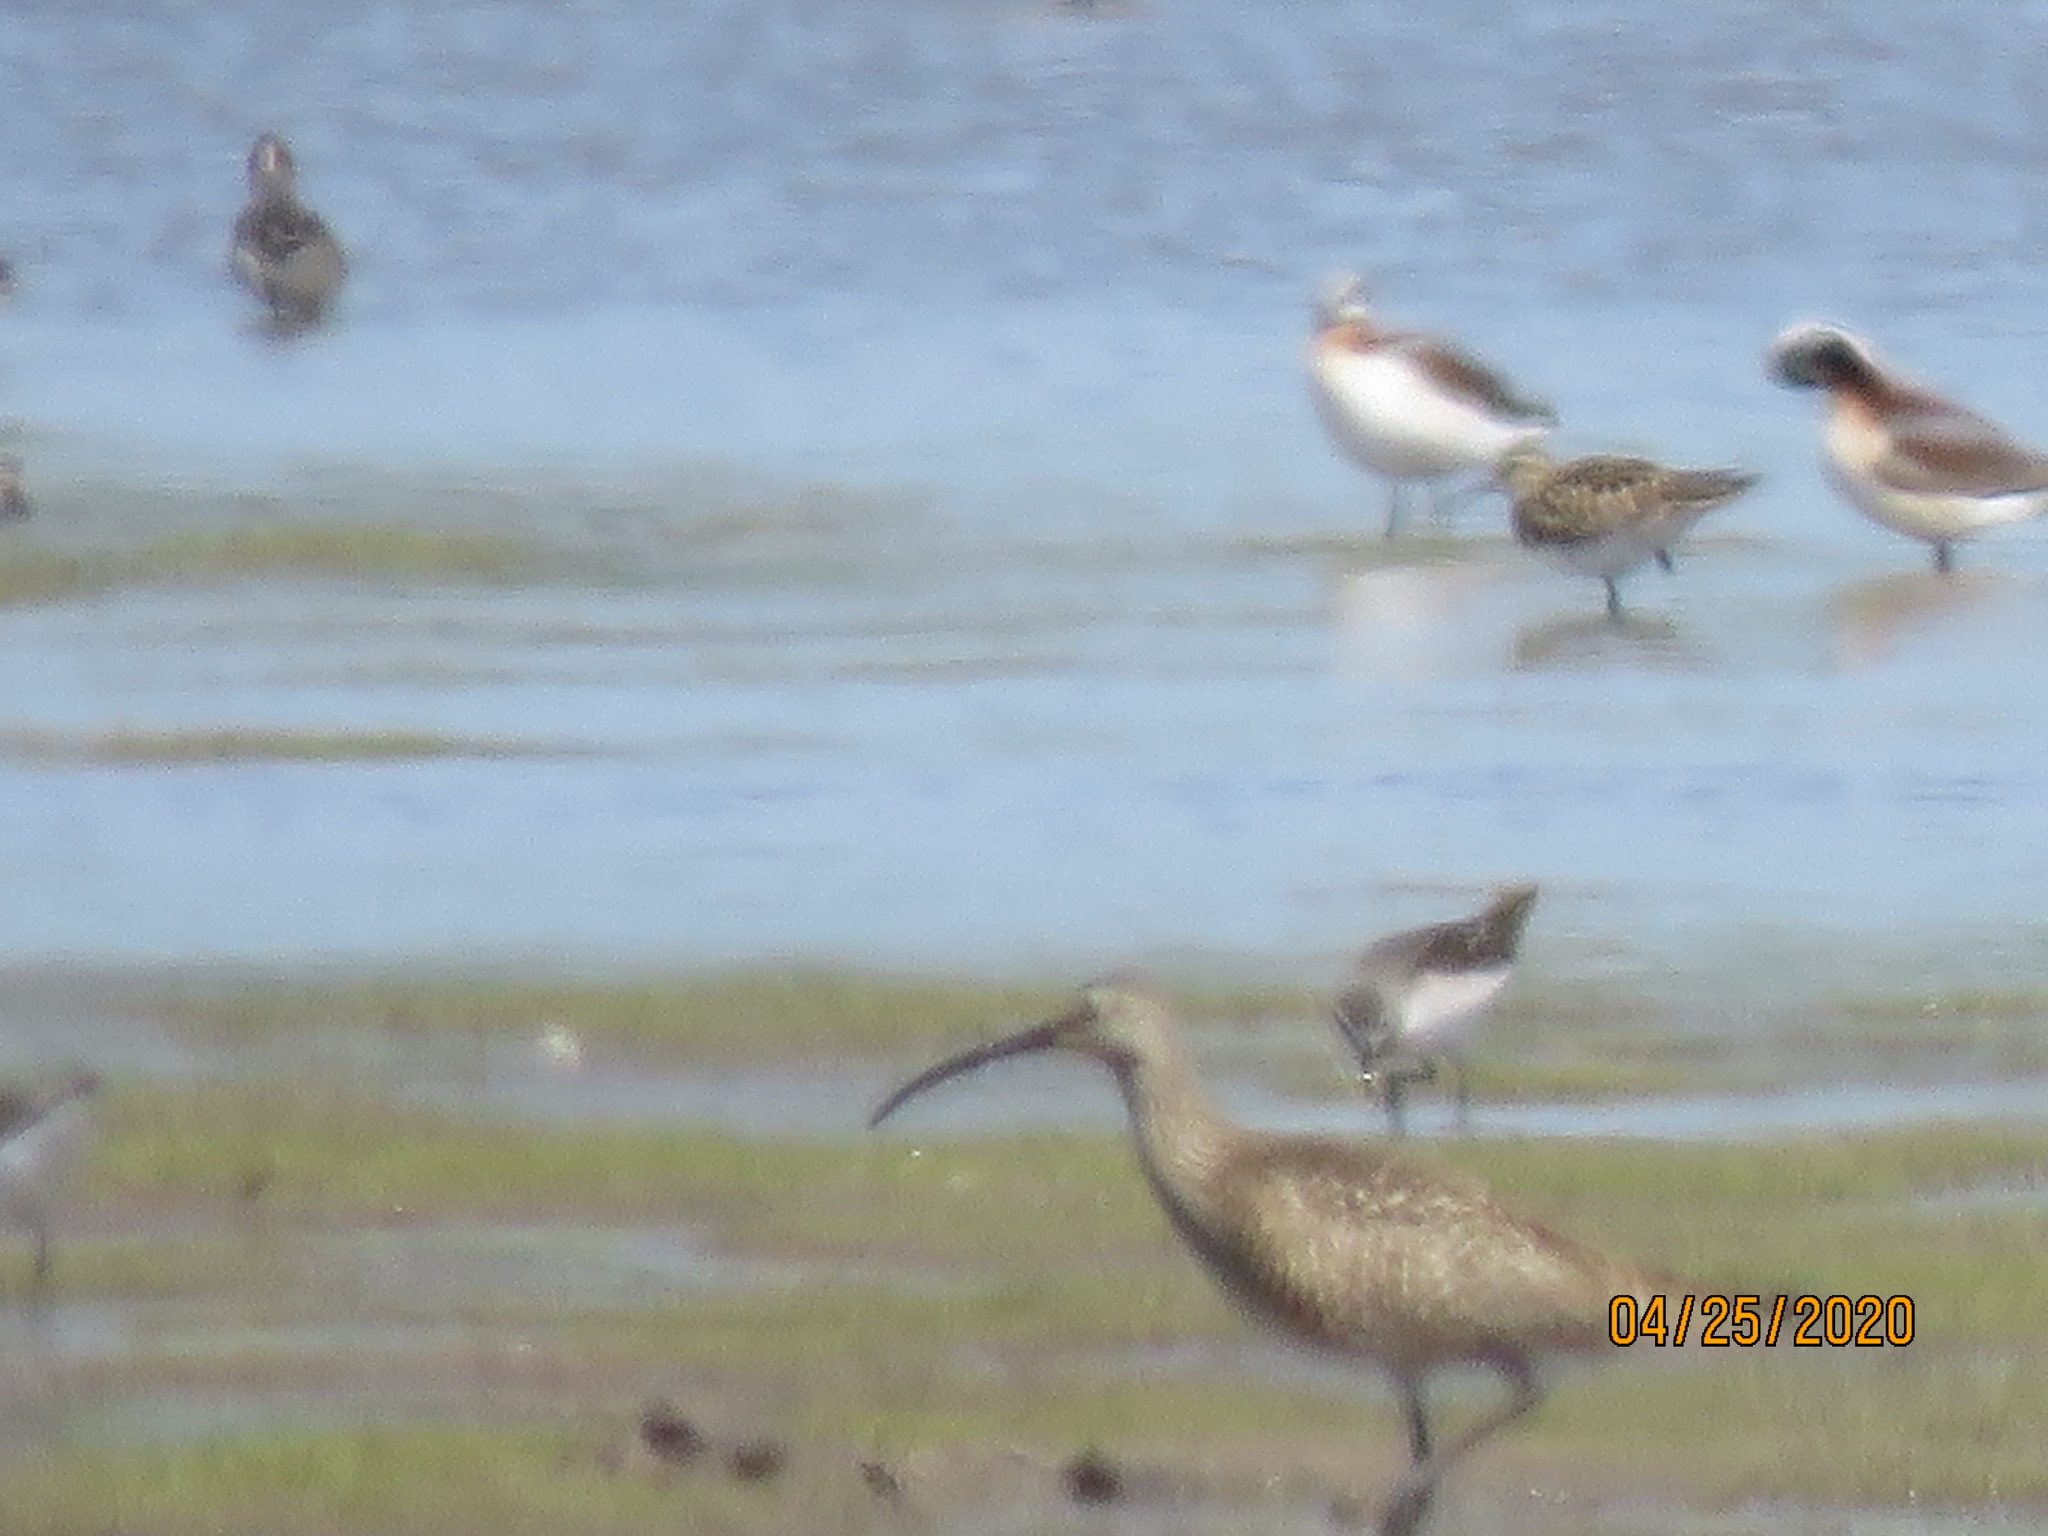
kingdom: Animalia
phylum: Chordata
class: Aves
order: Charadriiformes
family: Scolopacidae
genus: Numenius
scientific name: Numenius phaeopus
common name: Whimbrel
